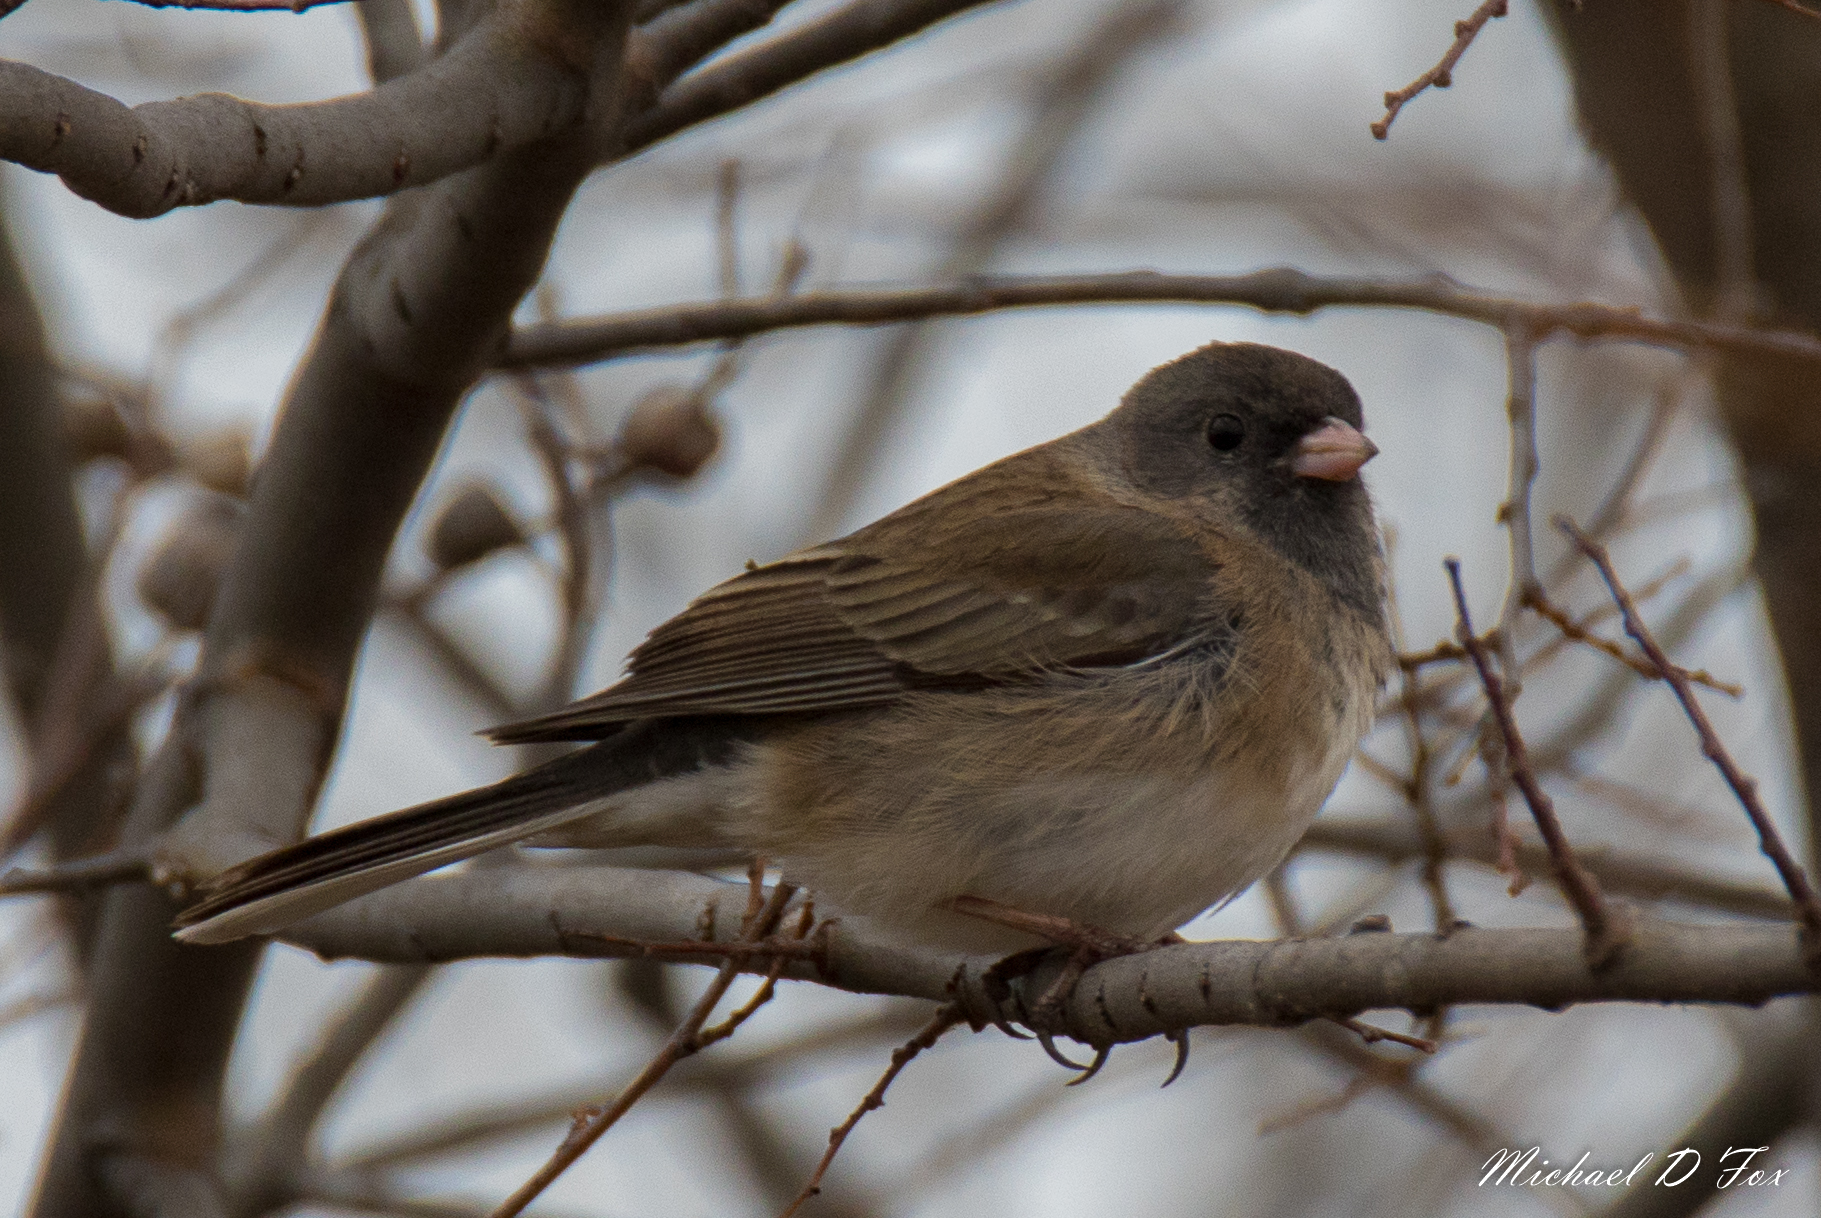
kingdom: Animalia
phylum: Chordata
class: Aves
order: Passeriformes
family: Passerellidae
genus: Junco
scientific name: Junco hyemalis
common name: Dark-eyed junco
